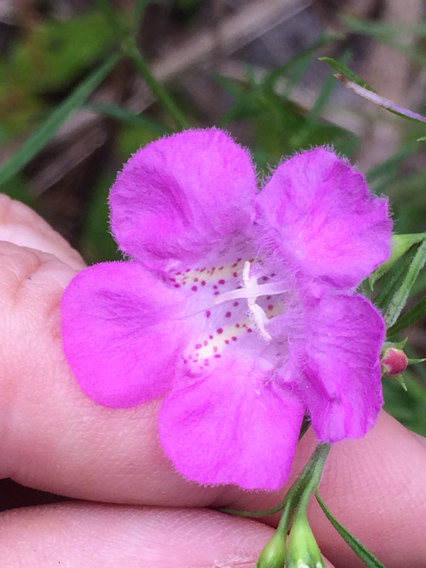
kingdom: Plantae
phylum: Tracheophyta
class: Magnoliopsida
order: Lamiales
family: Orobanchaceae
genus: Agalinis
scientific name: Agalinis purpurea
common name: Purple false foxglove
